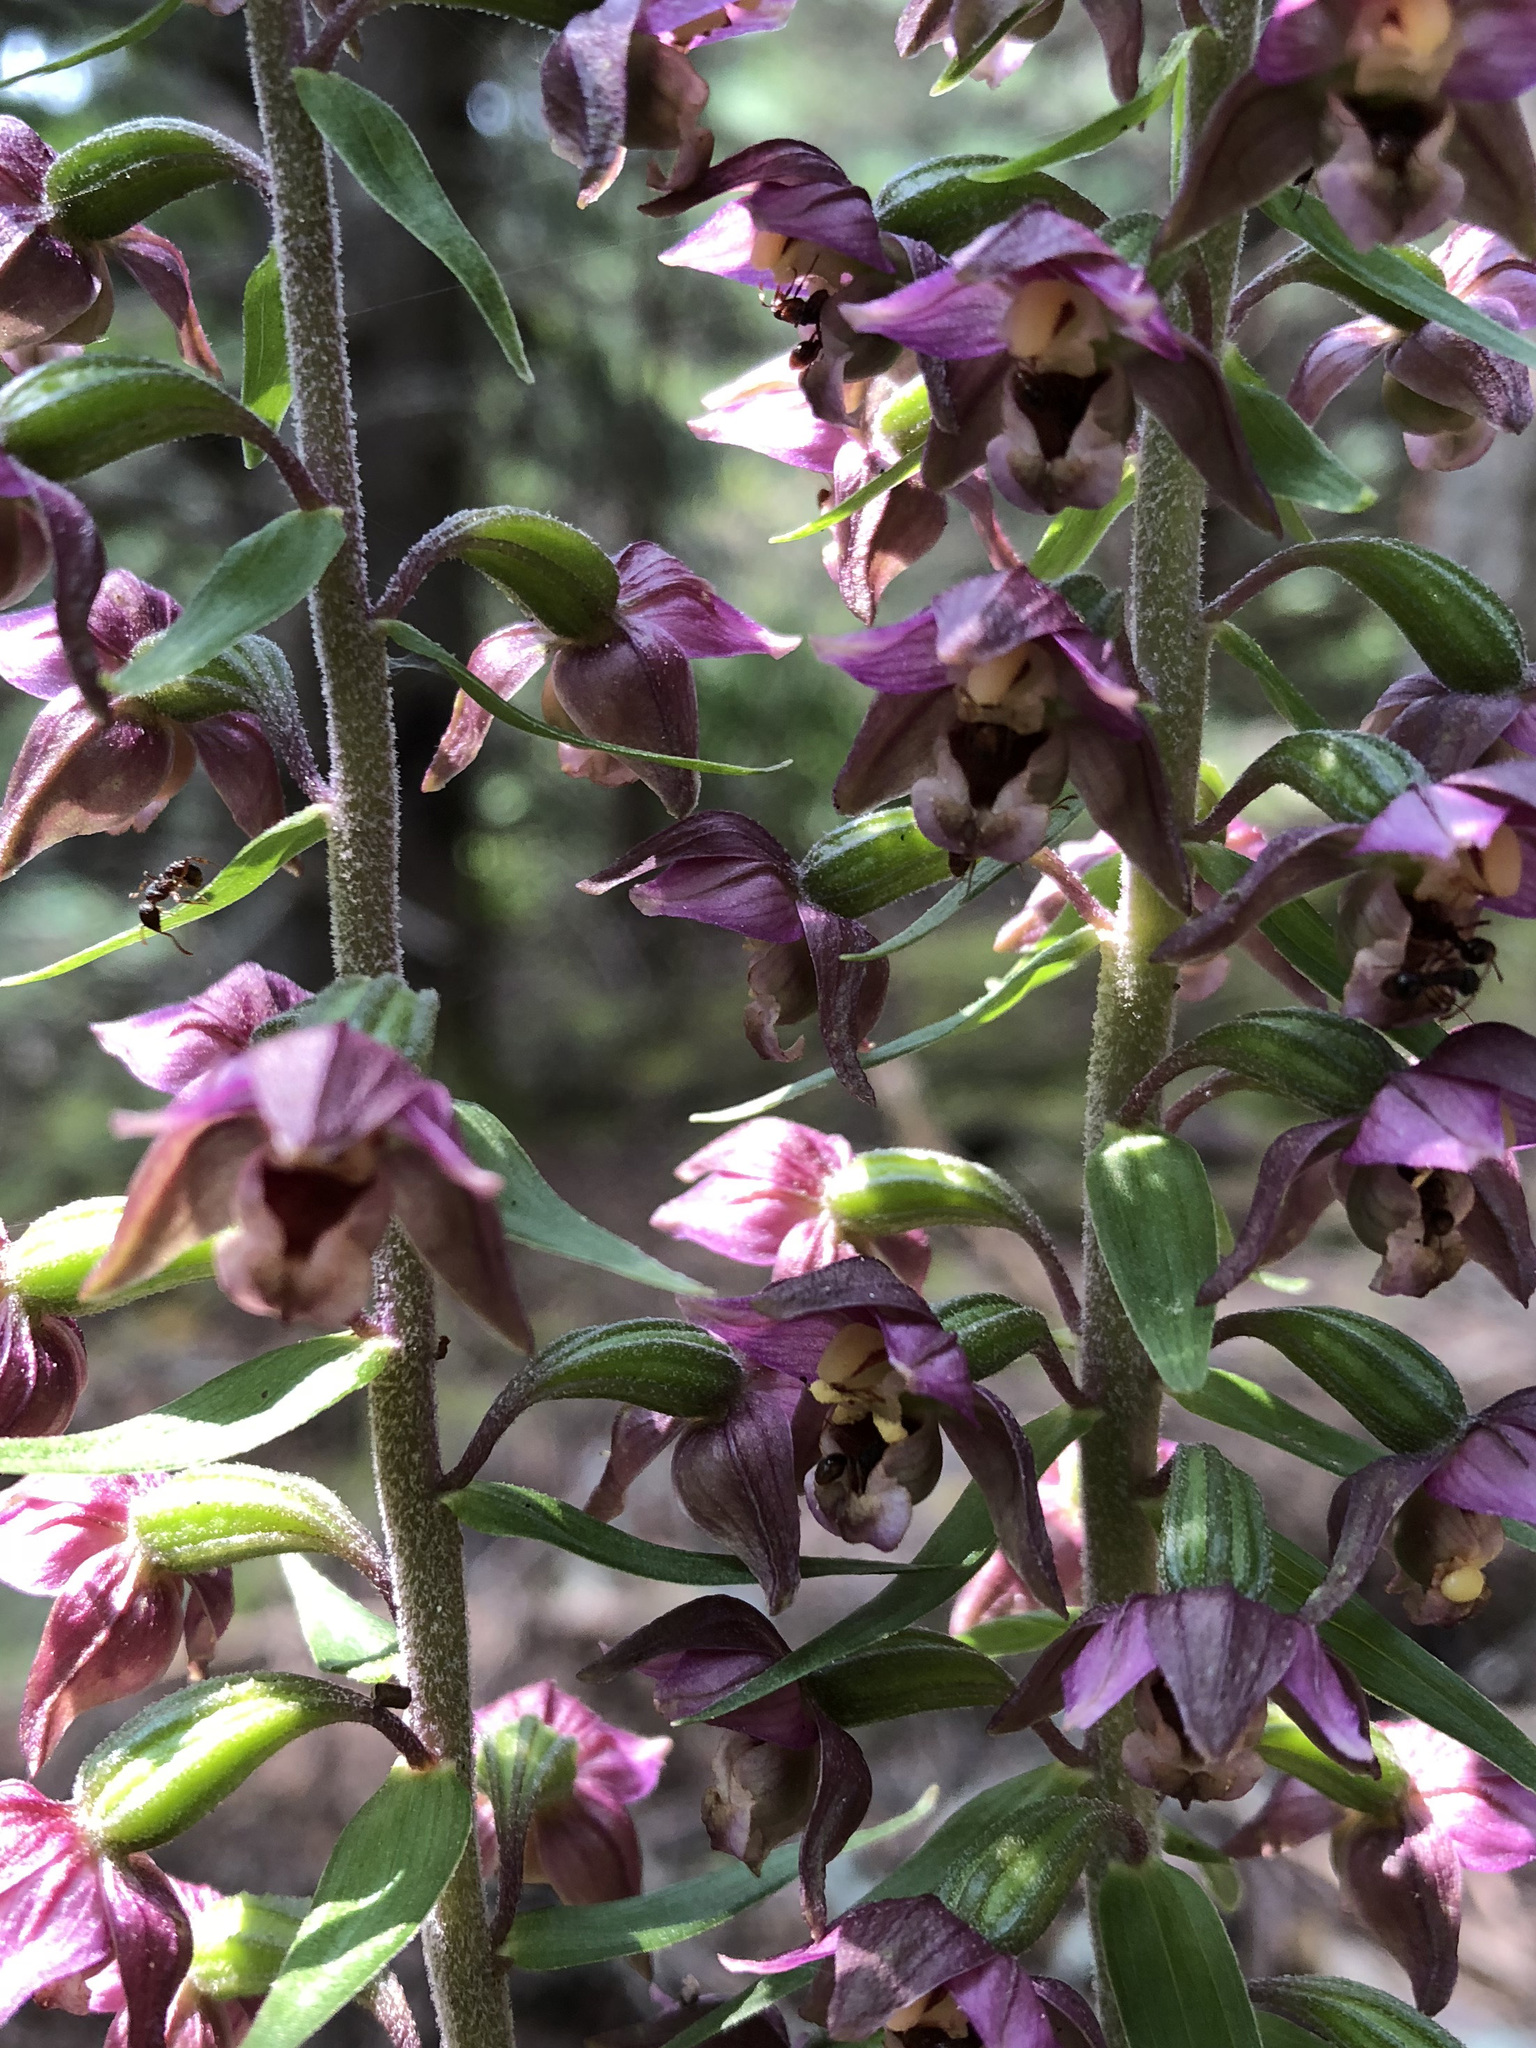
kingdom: Plantae
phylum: Tracheophyta
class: Liliopsida
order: Asparagales
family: Orchidaceae
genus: Epipactis
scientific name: Epipactis helleborine
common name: Broad-leaved helleborine
